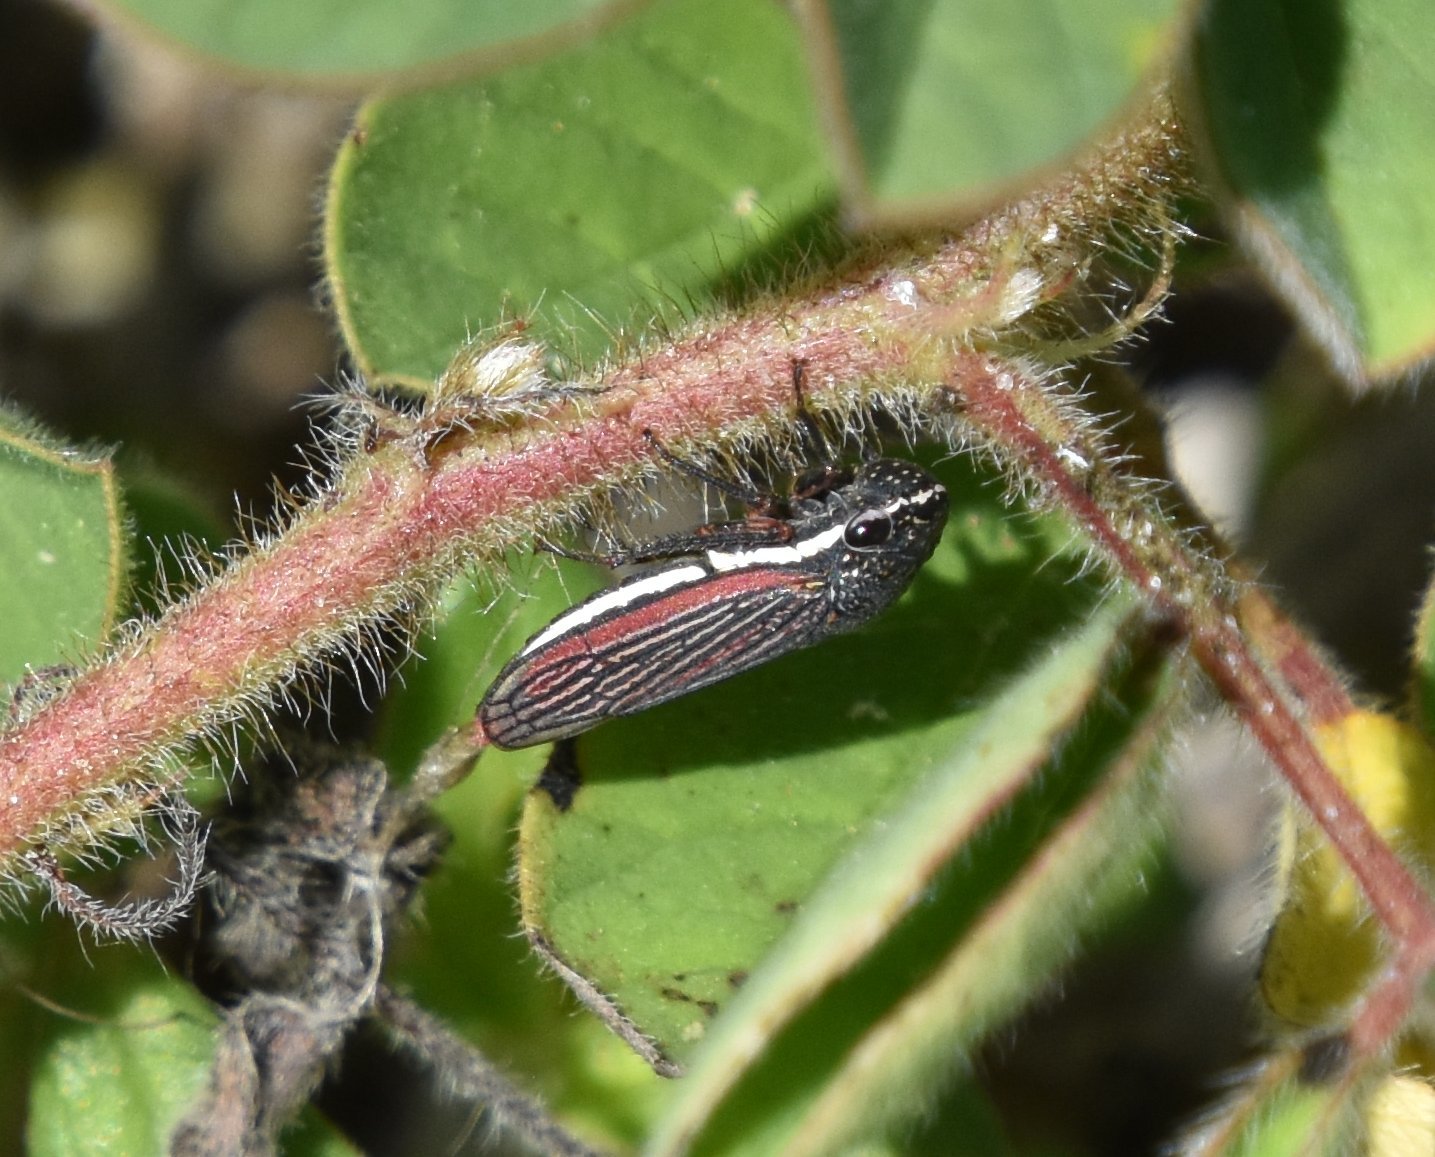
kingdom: Animalia
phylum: Arthropoda
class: Insecta
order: Hemiptera
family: Cicadellidae
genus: Cuerna
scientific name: Cuerna costalis
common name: Lateral-lined sharpshooter
